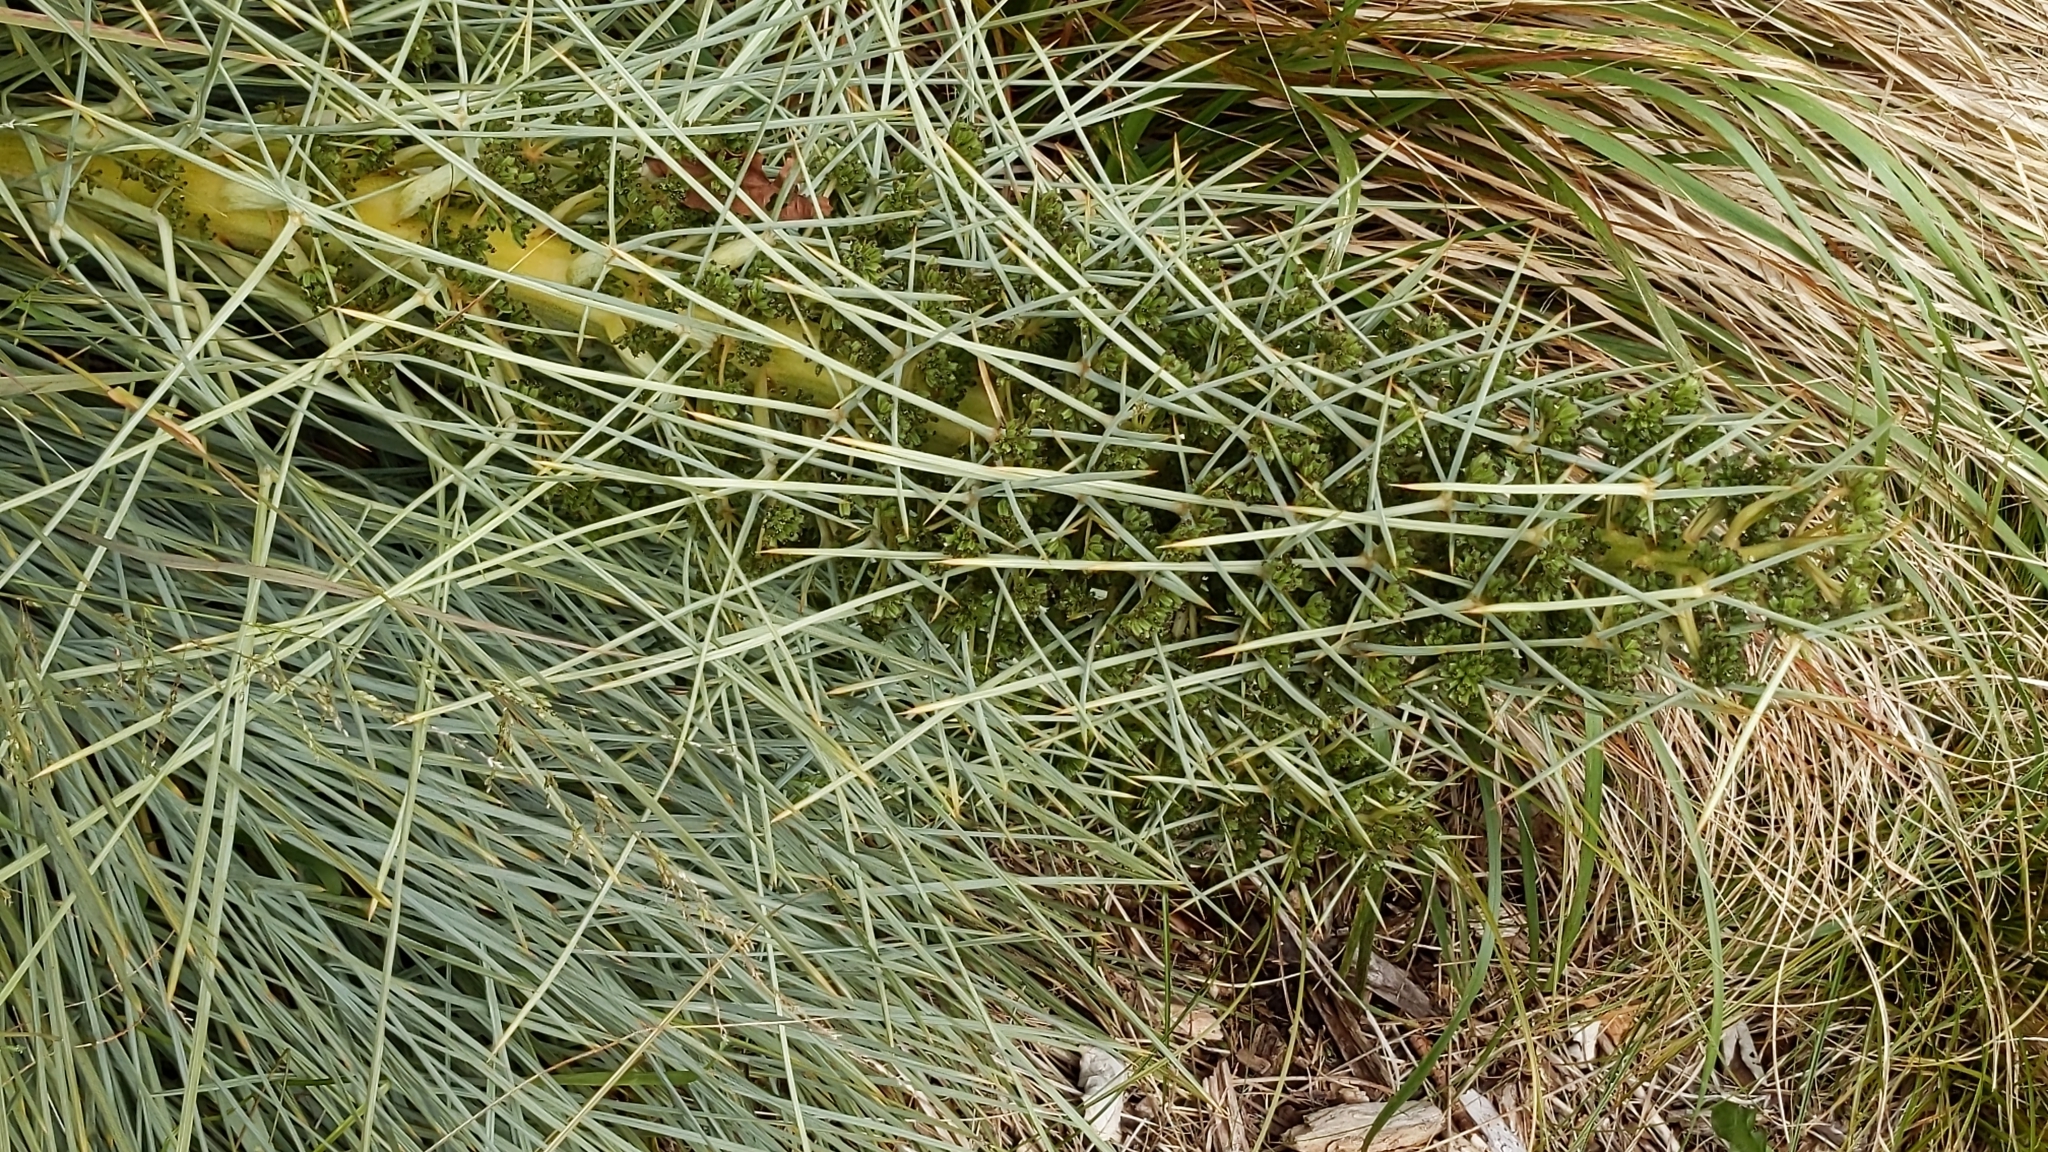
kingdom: Plantae
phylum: Tracheophyta
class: Magnoliopsida
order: Apiales
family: Apiaceae
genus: Aciphylla
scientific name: Aciphylla squarrosa
